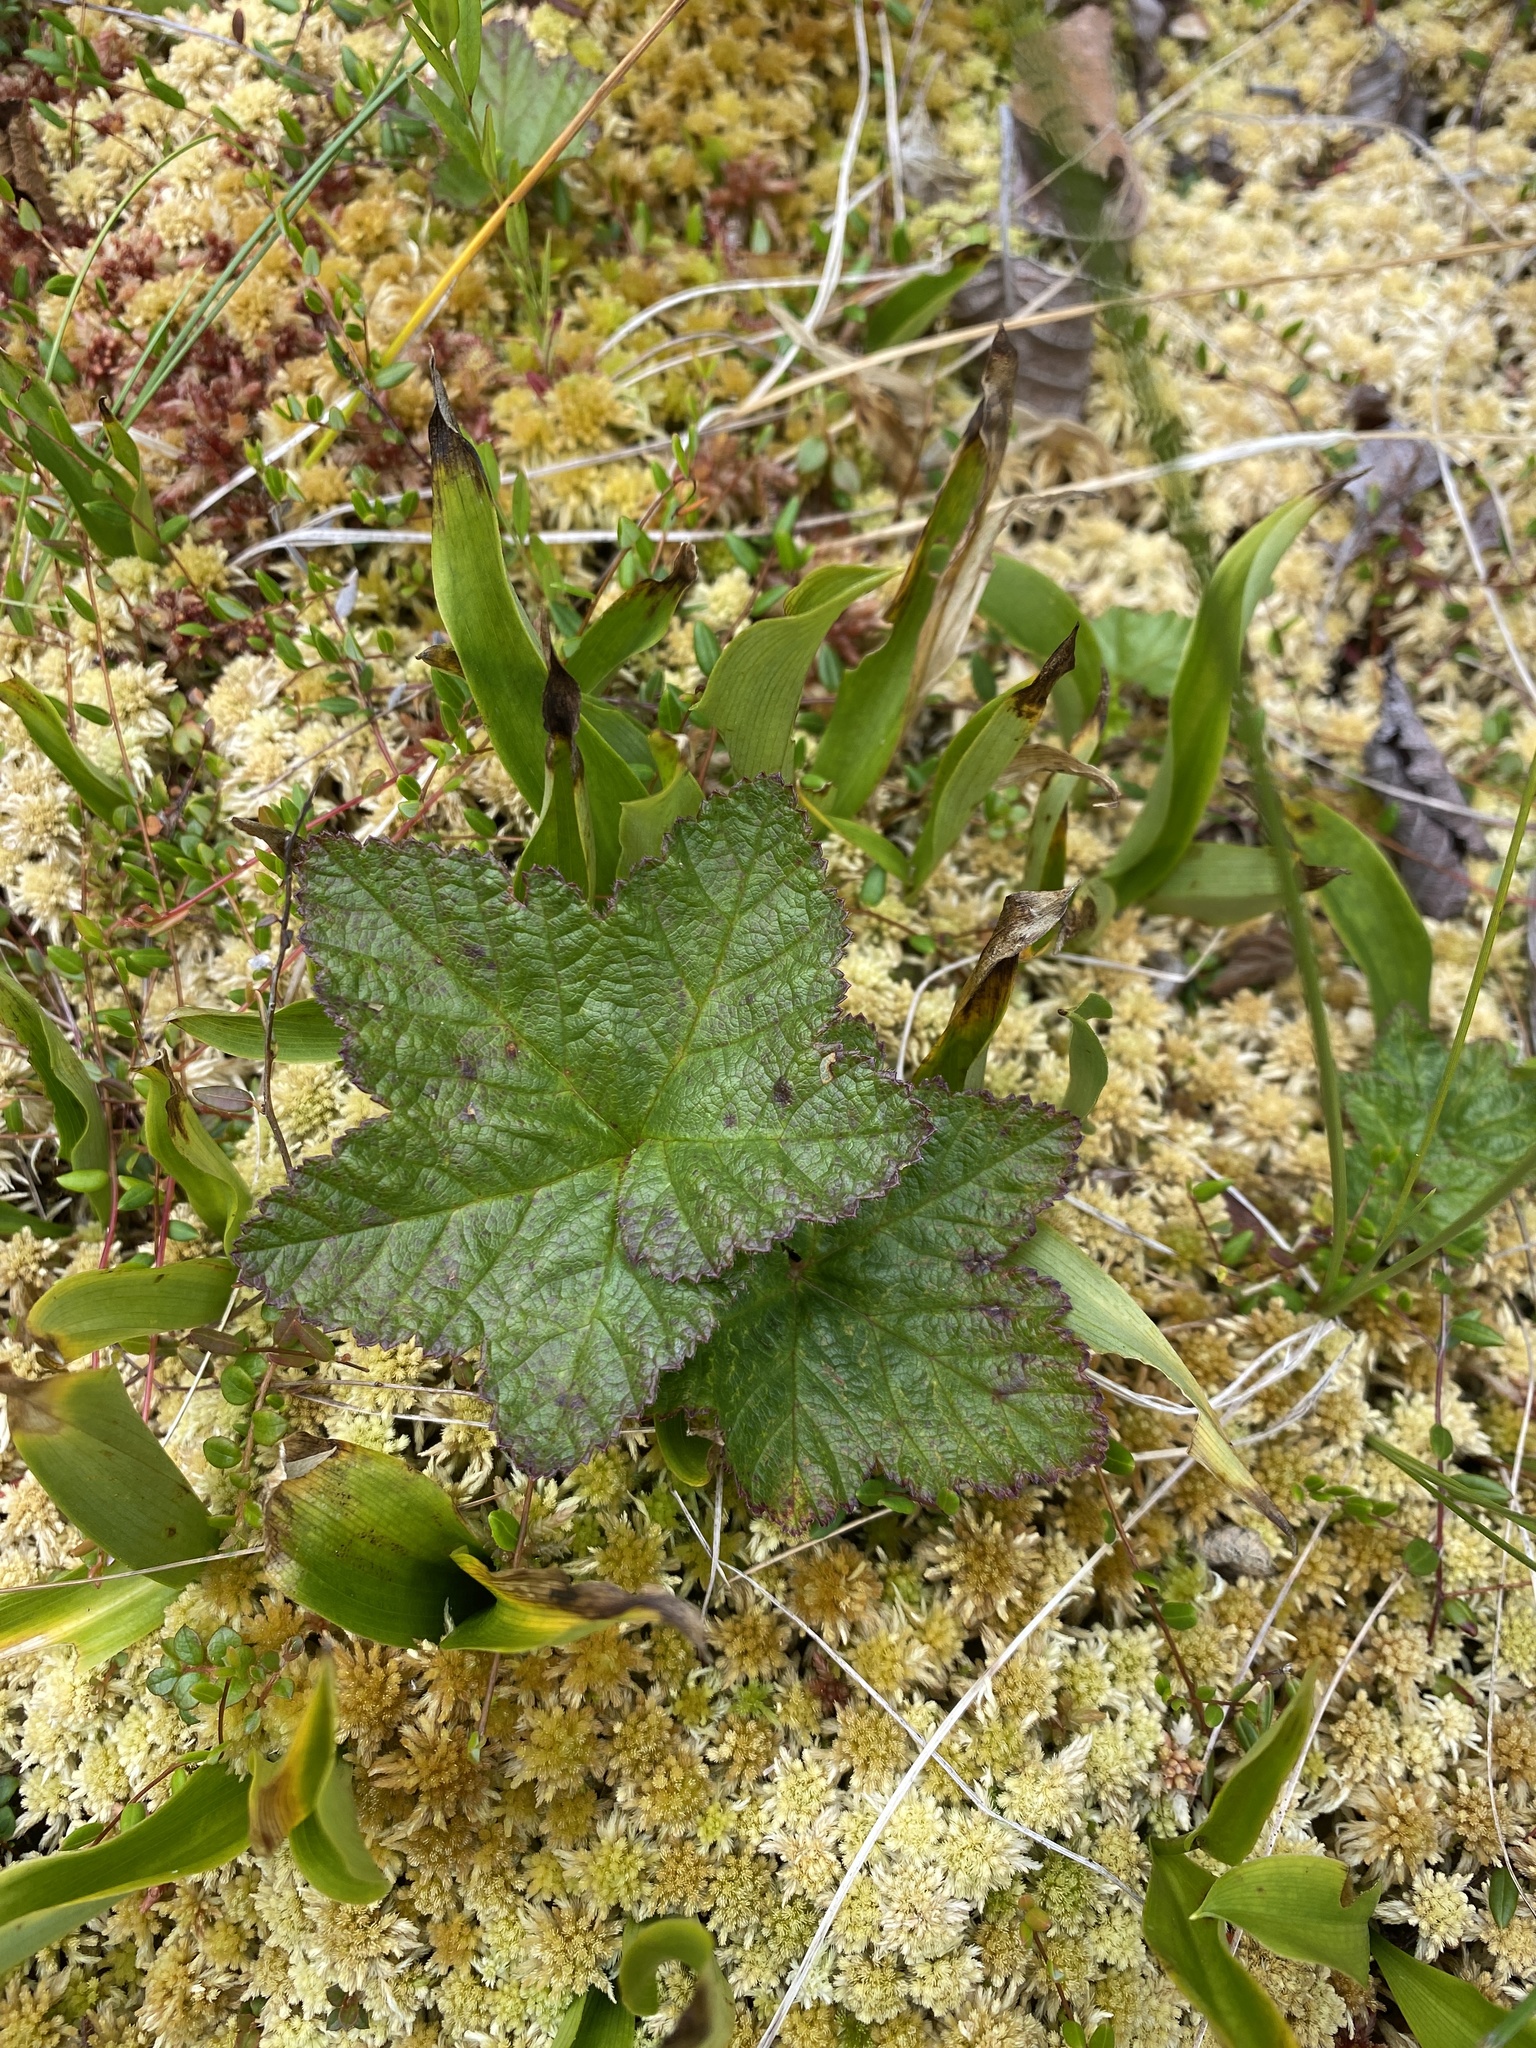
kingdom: Plantae
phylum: Tracheophyta
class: Magnoliopsida
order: Rosales
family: Rosaceae
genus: Rubus
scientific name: Rubus chamaemorus
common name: Cloudberry
